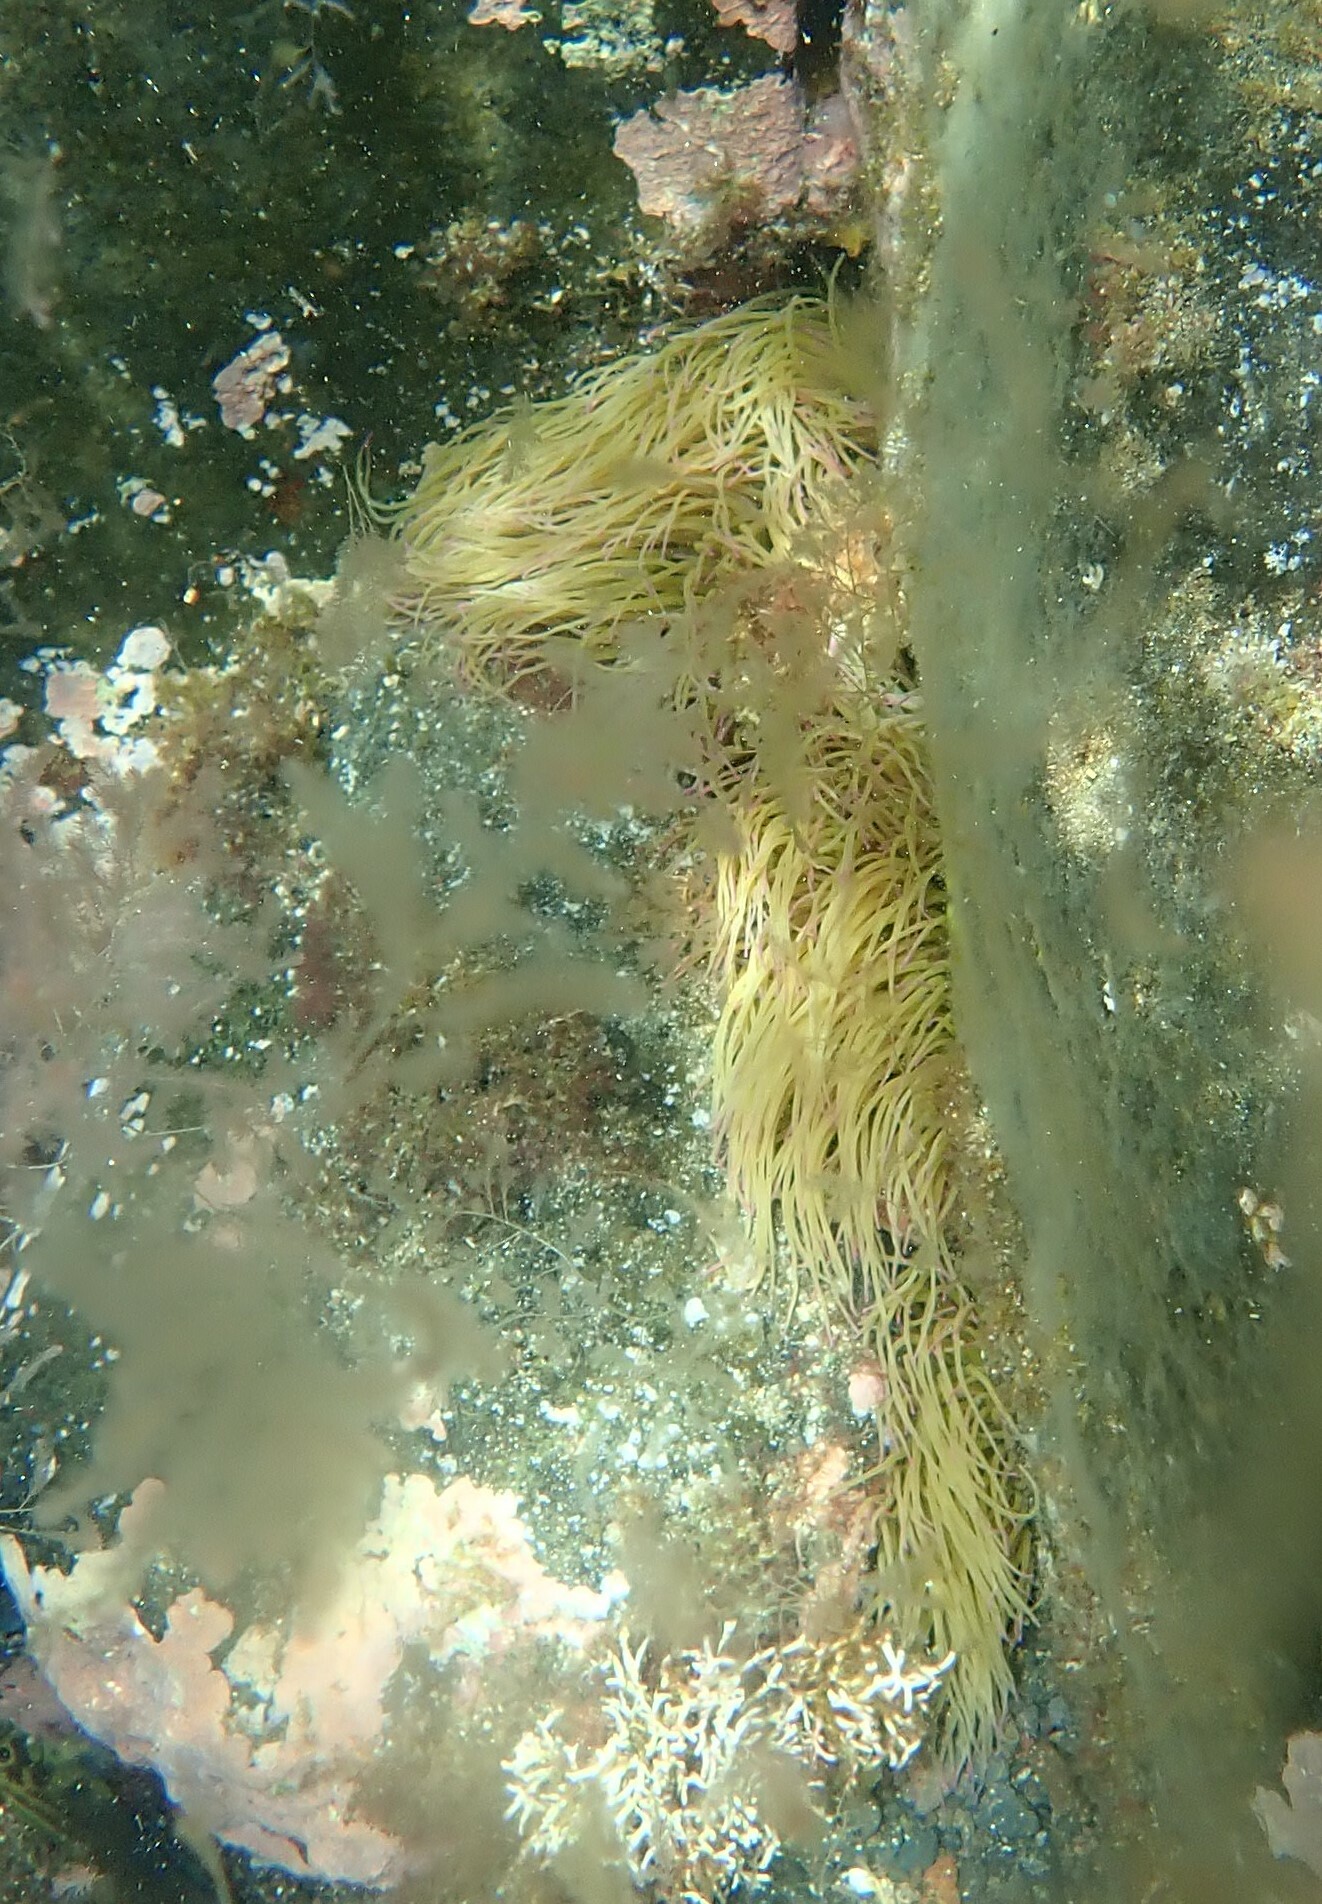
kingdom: Animalia
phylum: Cnidaria
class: Anthozoa
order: Actiniaria
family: Actiniidae
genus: Anemonia
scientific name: Anemonia viridis
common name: Snakelocks anemone
